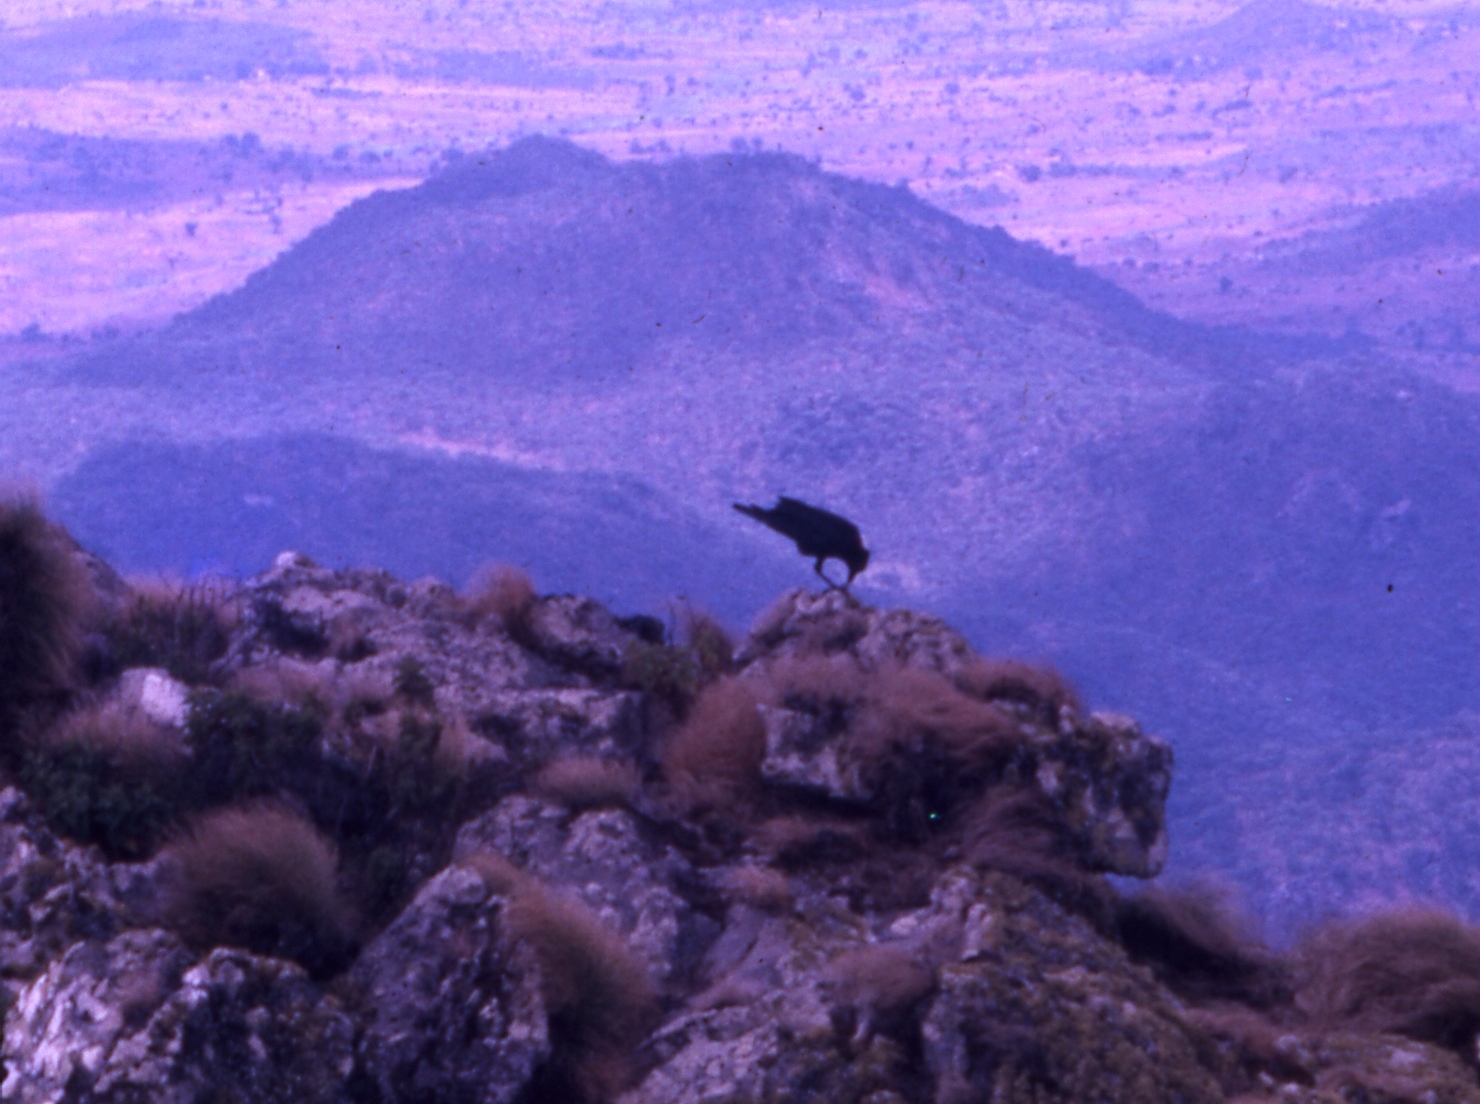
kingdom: Animalia
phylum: Chordata
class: Aves
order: Passeriformes
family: Corvidae
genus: Corvus
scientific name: Corvus albicollis
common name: White-necked raven
